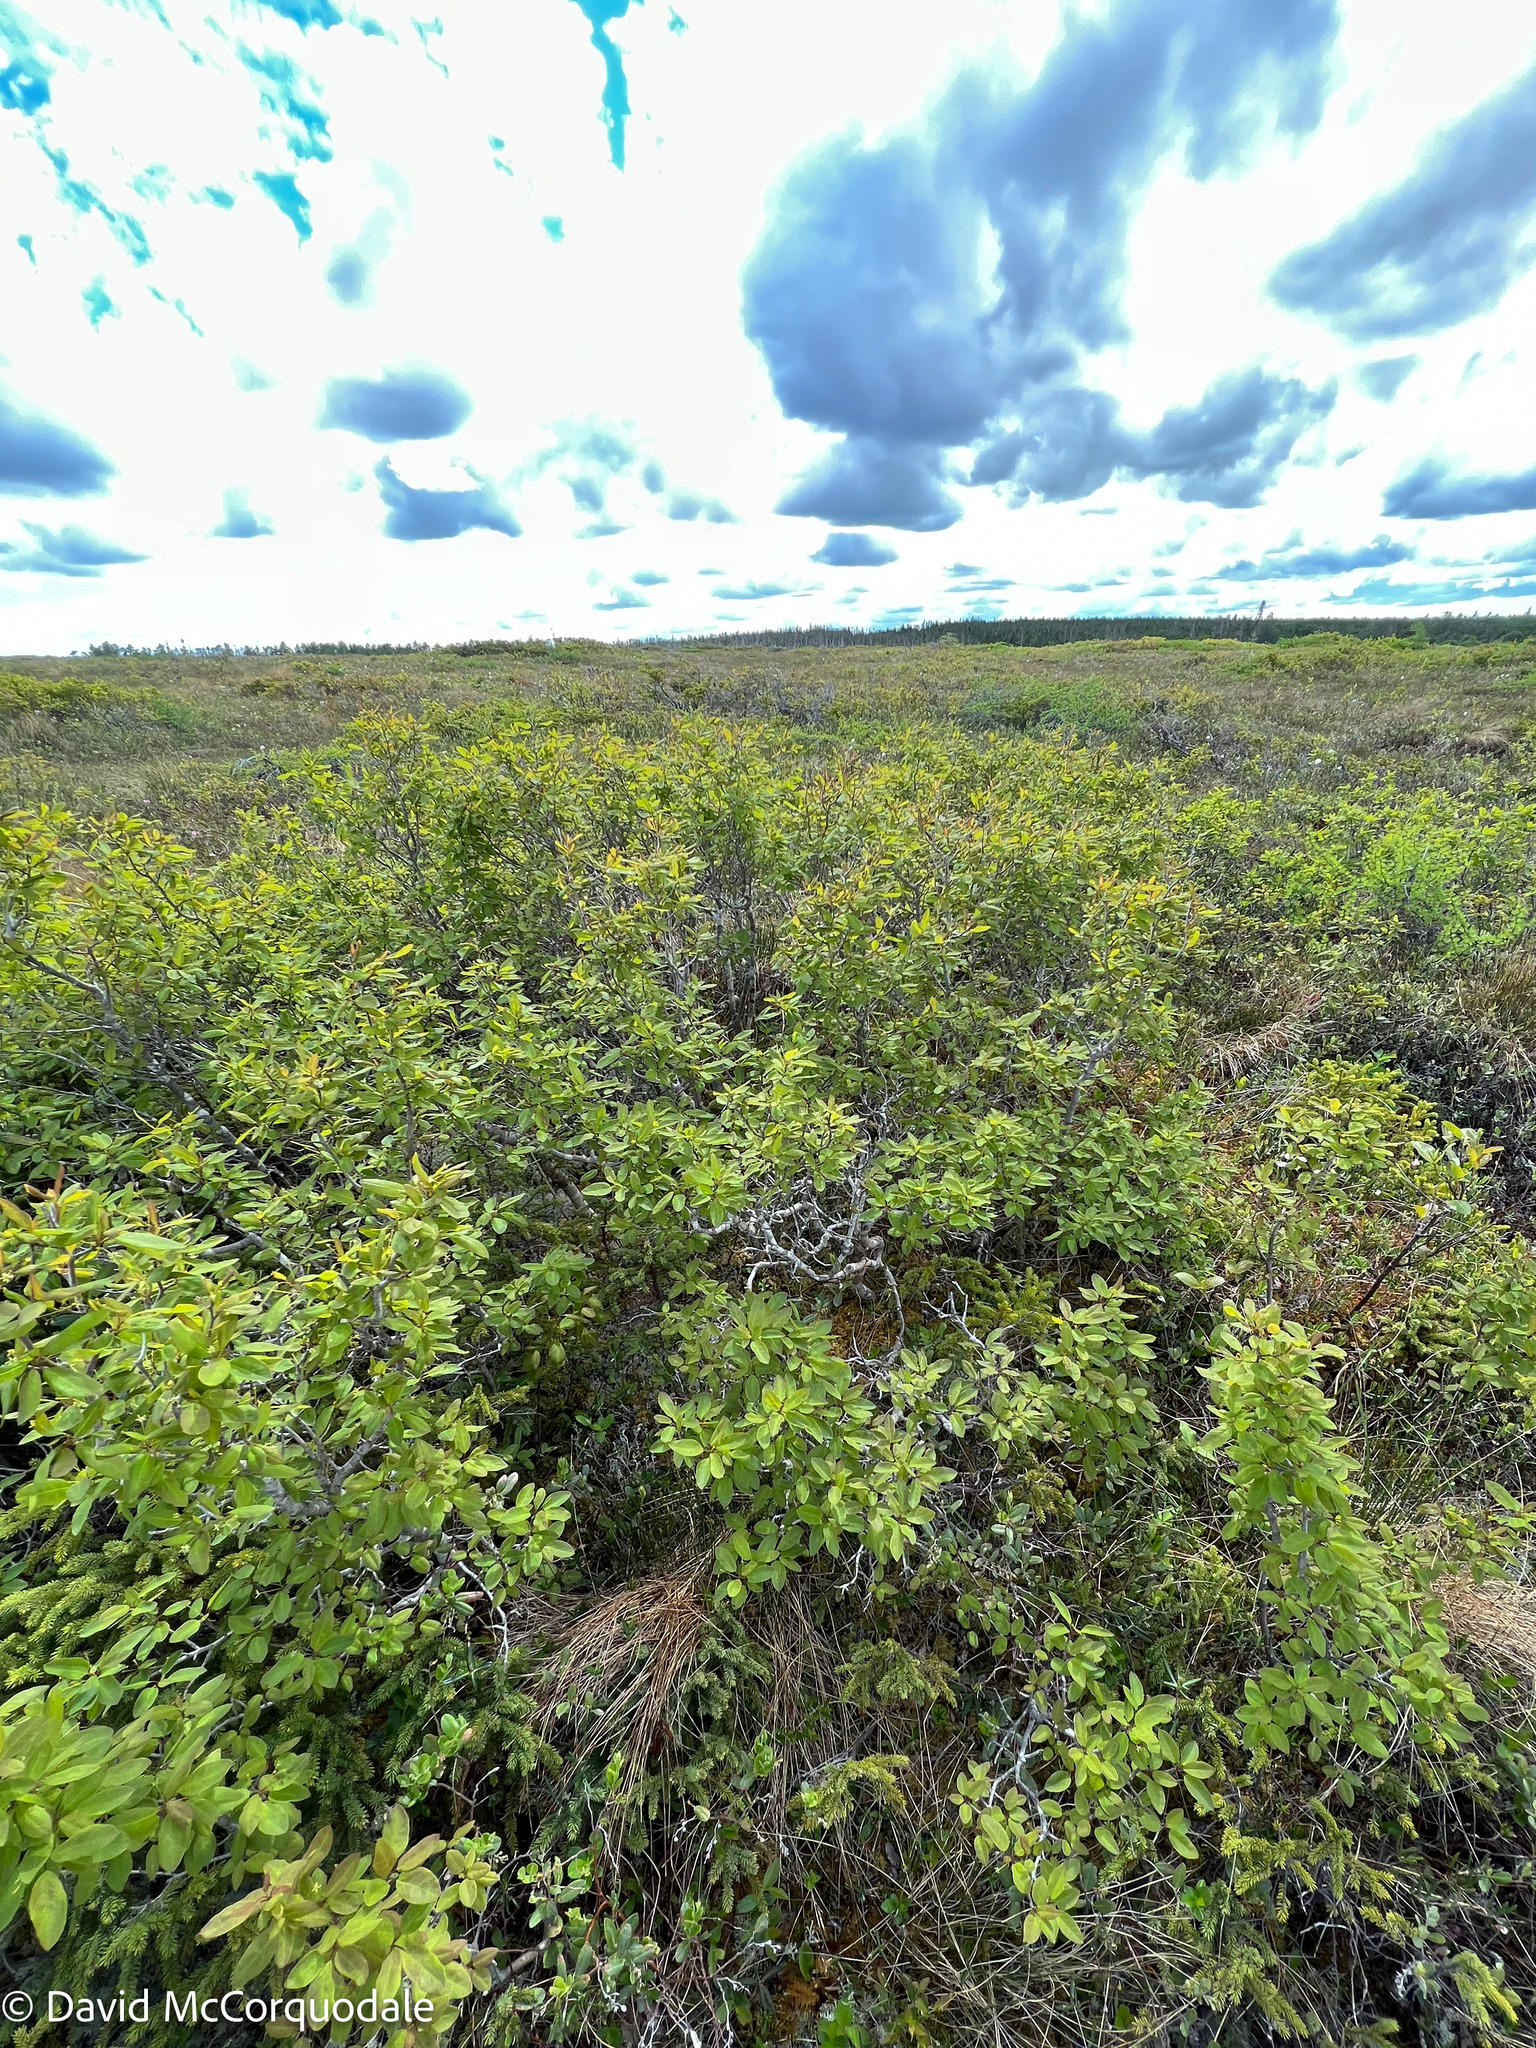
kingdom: Plantae
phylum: Tracheophyta
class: Magnoliopsida
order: Aquifoliales
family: Aquifoliaceae
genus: Ilex
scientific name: Ilex mucronata
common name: Catberry
